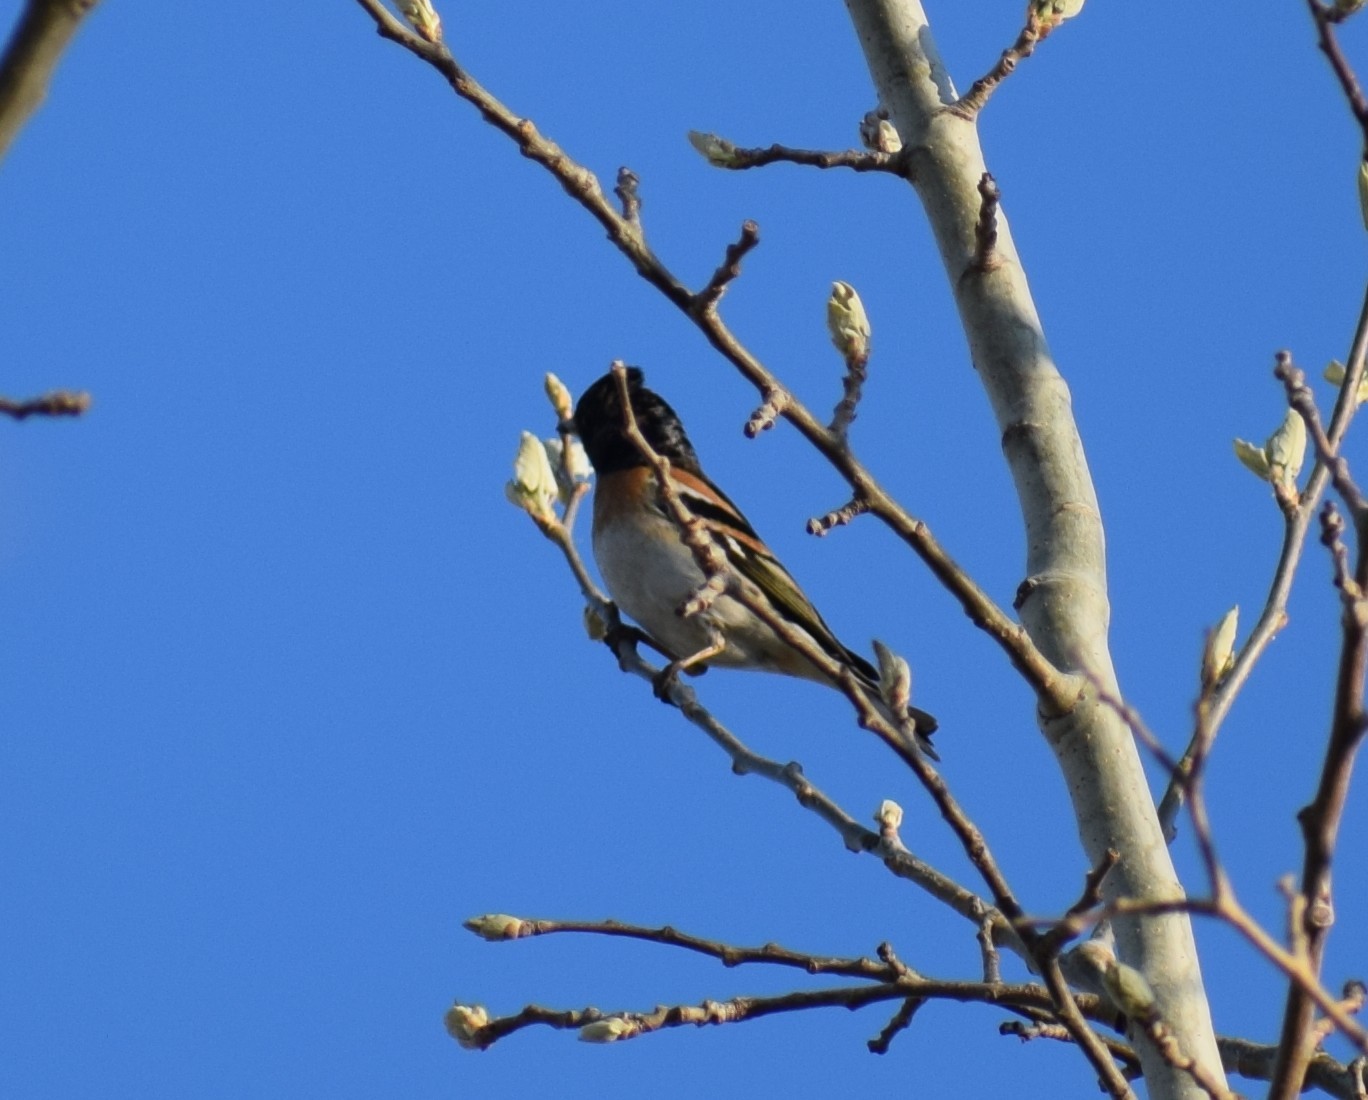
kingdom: Animalia
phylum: Chordata
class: Aves
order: Passeriformes
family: Fringillidae
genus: Fringilla
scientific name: Fringilla montifringilla
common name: Brambling
